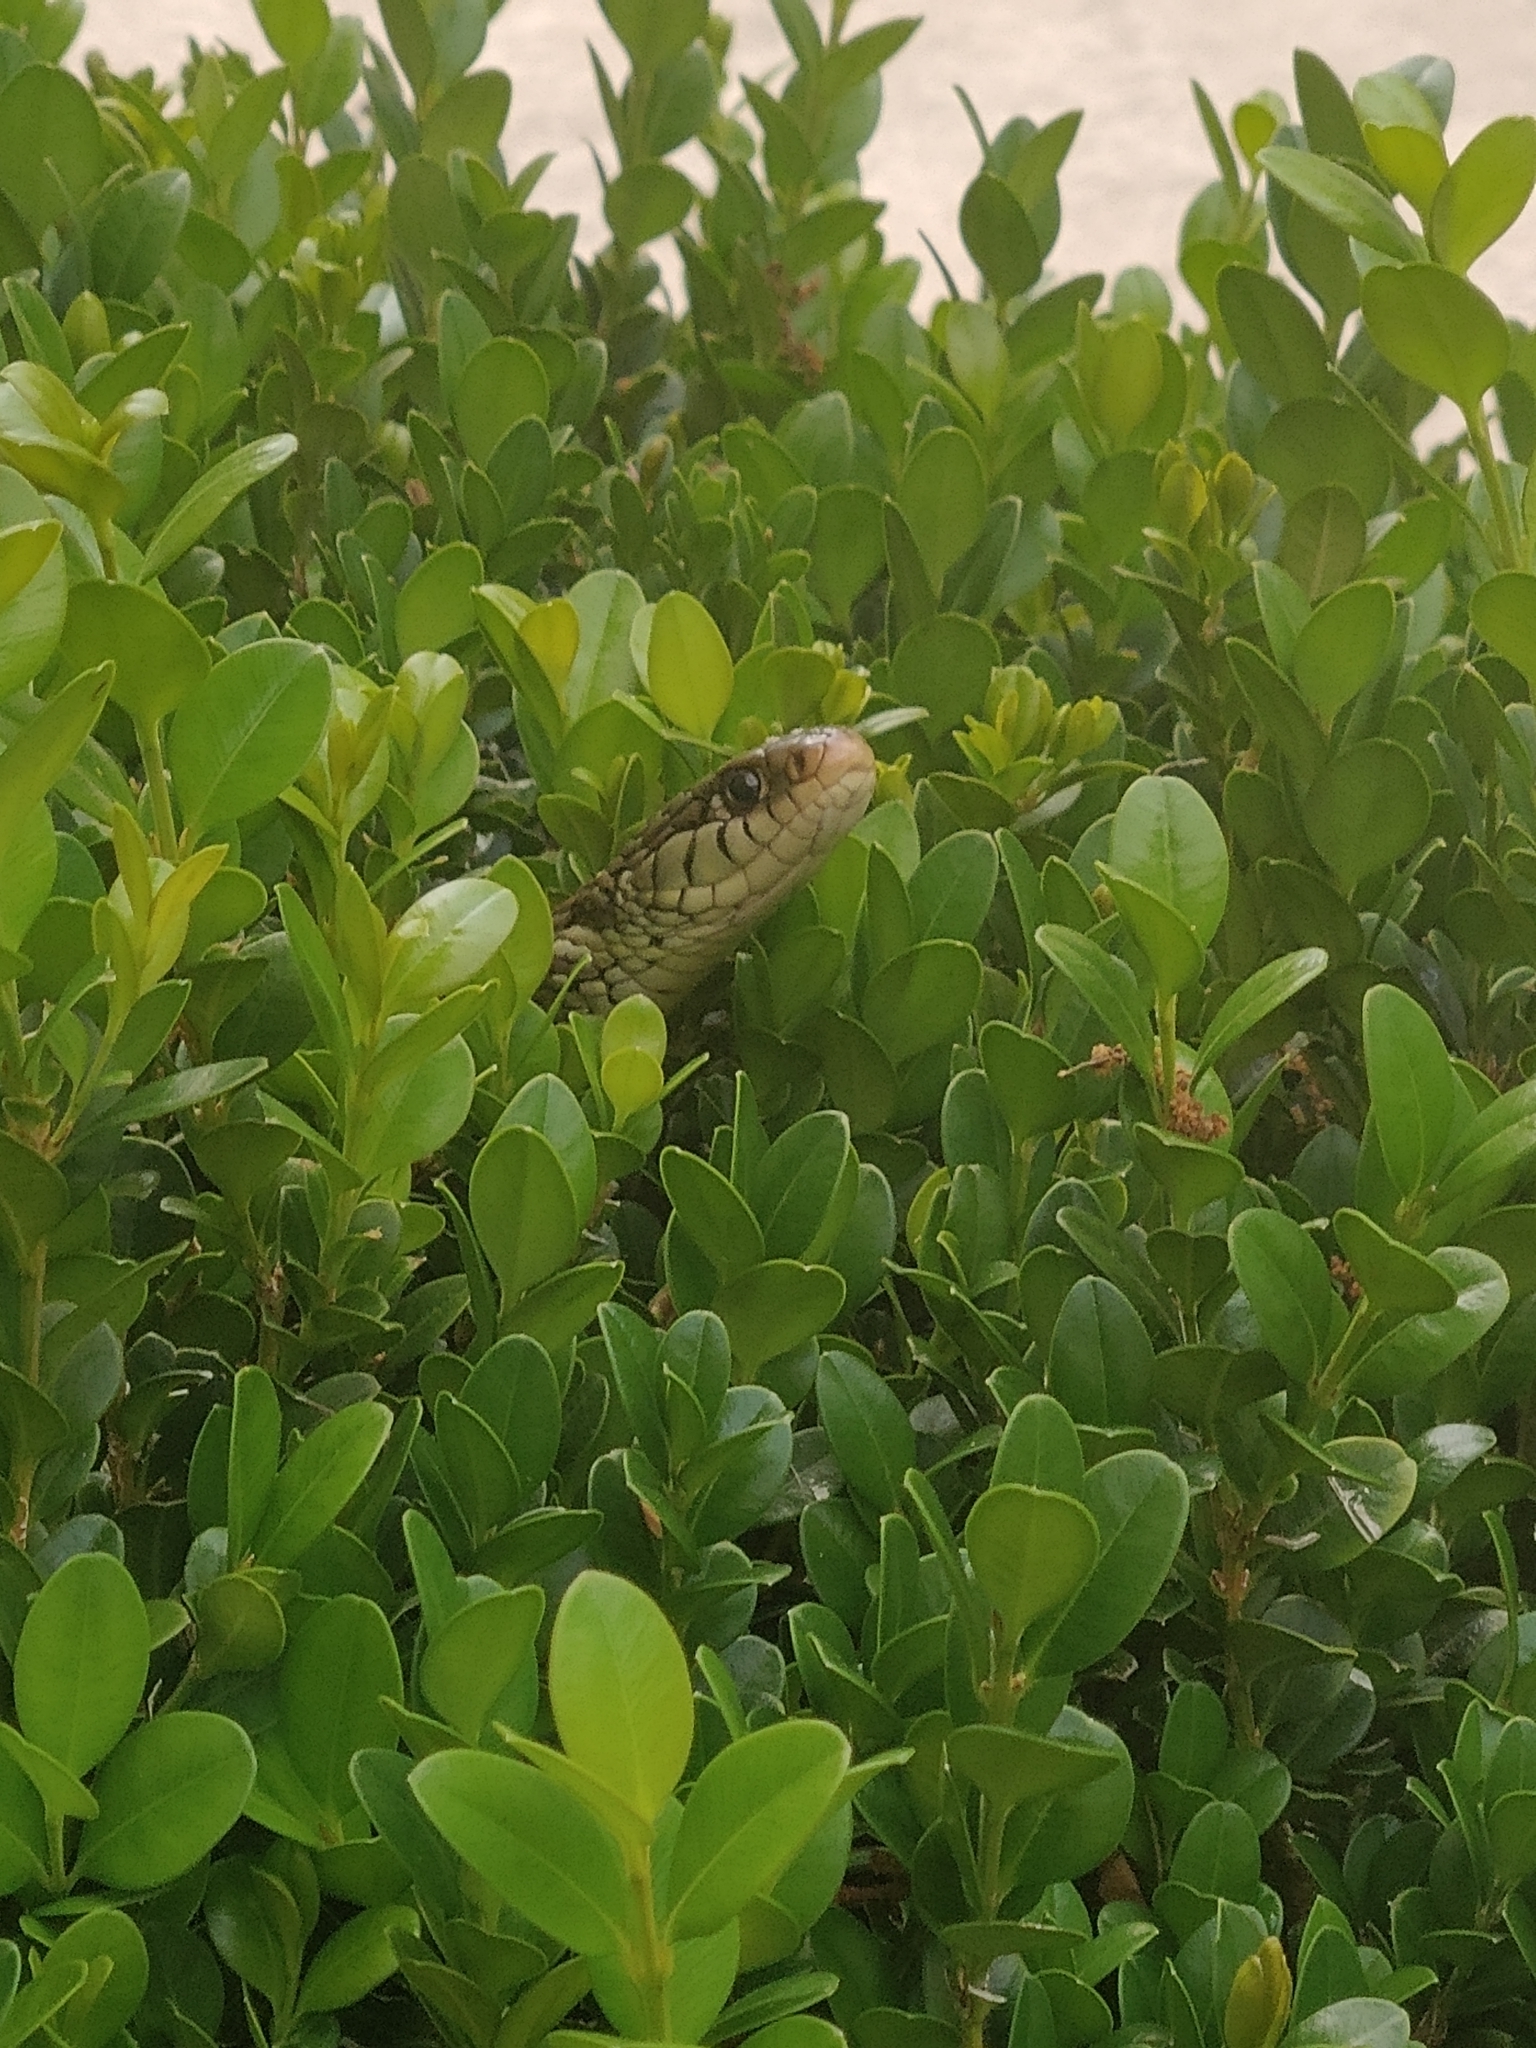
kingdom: Animalia
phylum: Chordata
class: Squamata
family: Colubridae
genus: Thamnophis
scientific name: Thamnophis sirtalis
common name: Common garter snake
